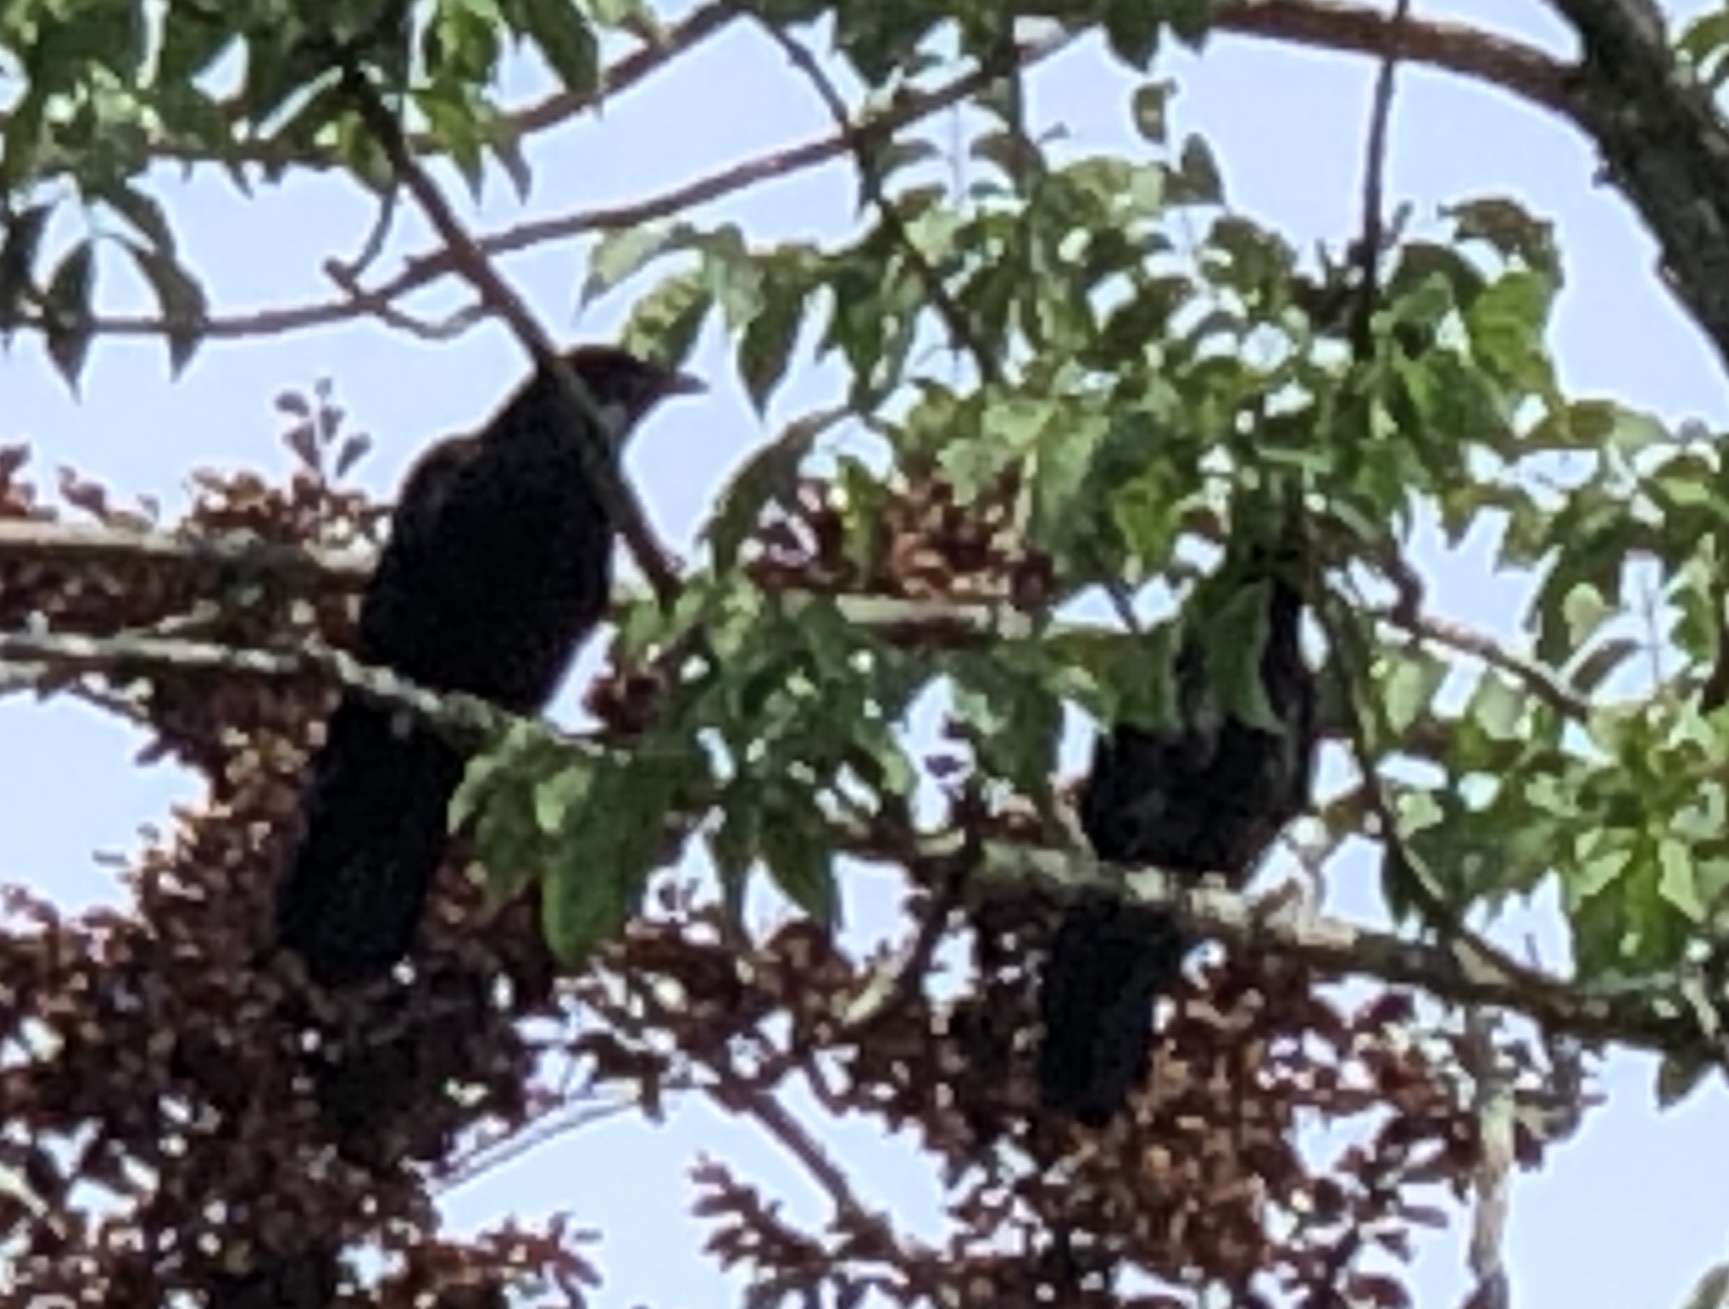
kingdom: Animalia
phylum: Chordata
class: Aves
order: Passeriformes
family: Corvidae
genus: Corvus
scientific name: Corvus brachyrhynchos
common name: American crow
